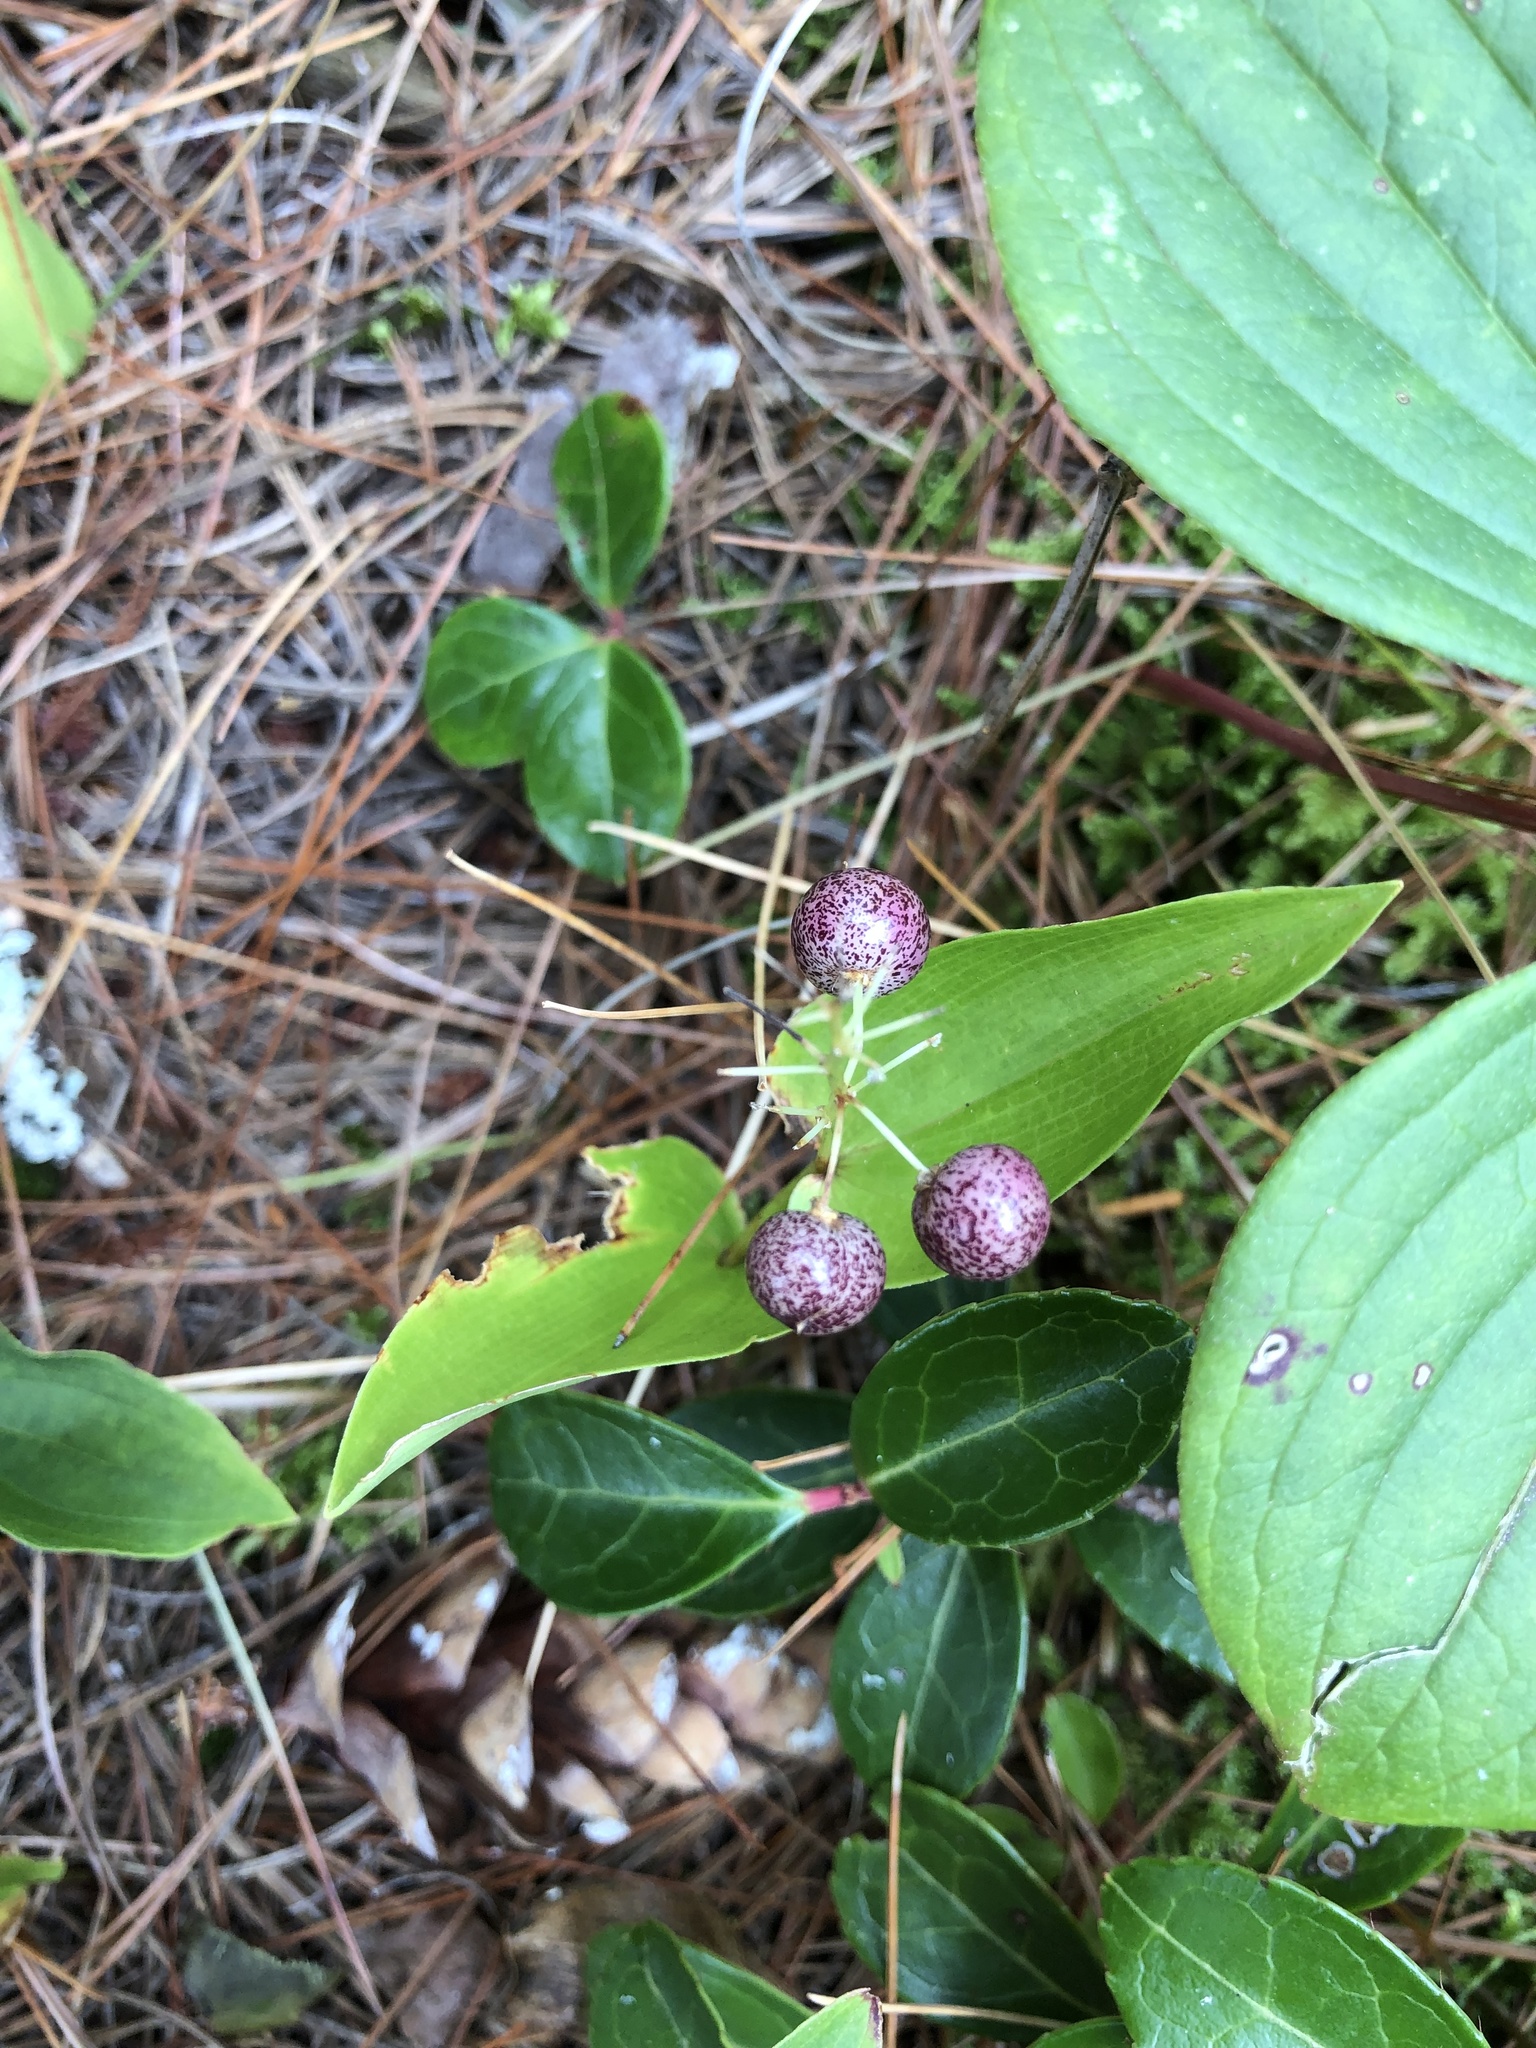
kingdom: Plantae
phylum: Tracheophyta
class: Liliopsida
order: Asparagales
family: Asparagaceae
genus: Maianthemum
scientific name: Maianthemum canadense
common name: False lily-of-the-valley
